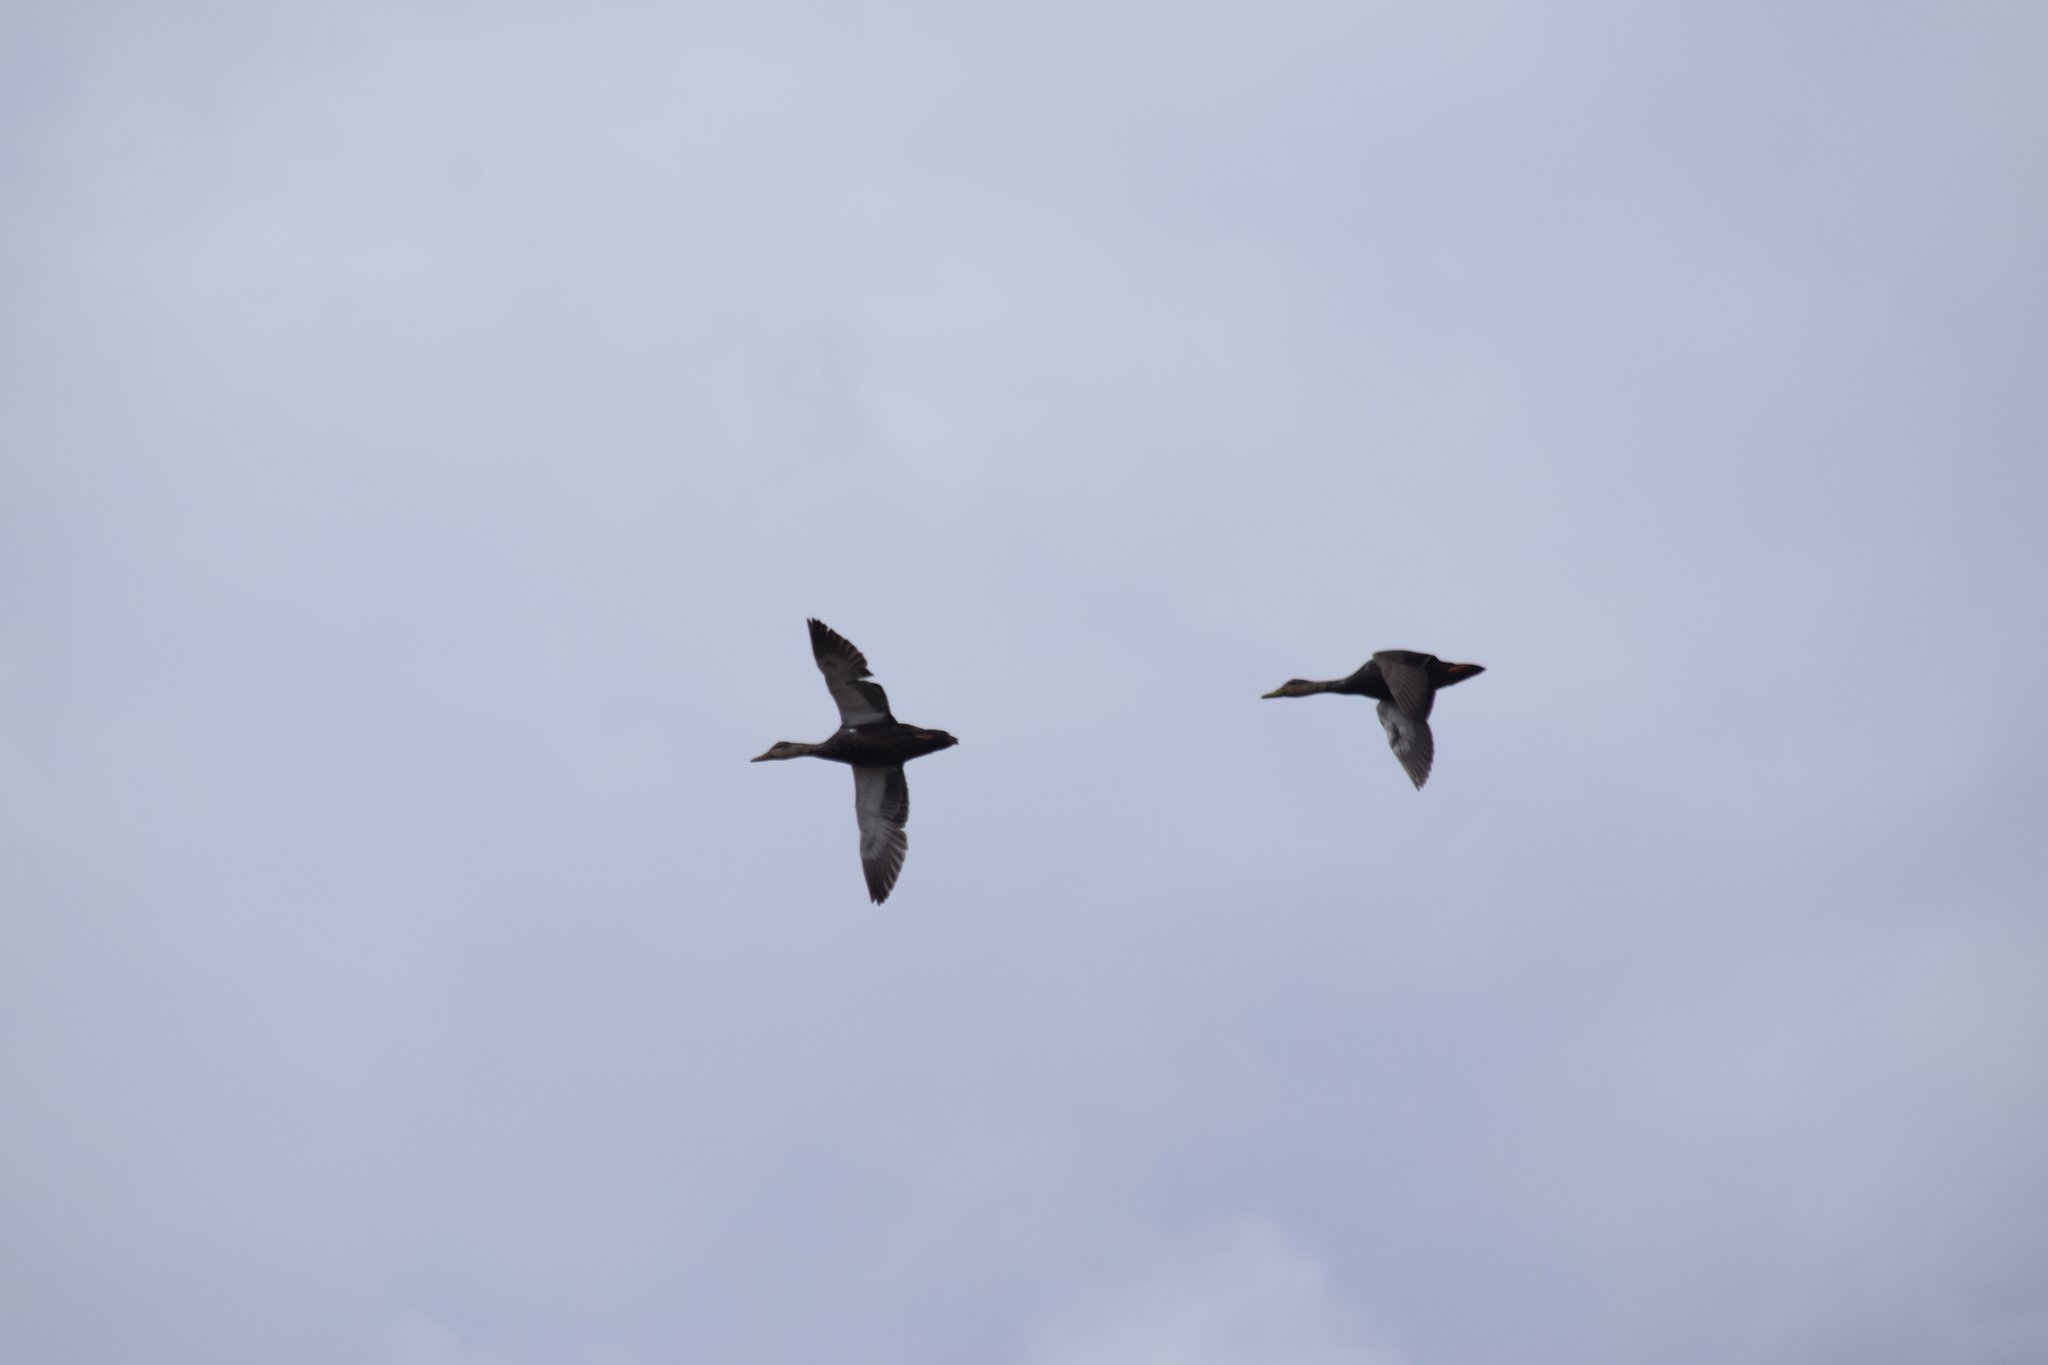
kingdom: Animalia
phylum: Chordata
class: Aves
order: Anseriformes
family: Anatidae
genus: Anas
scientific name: Anas rubripes
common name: American black duck
